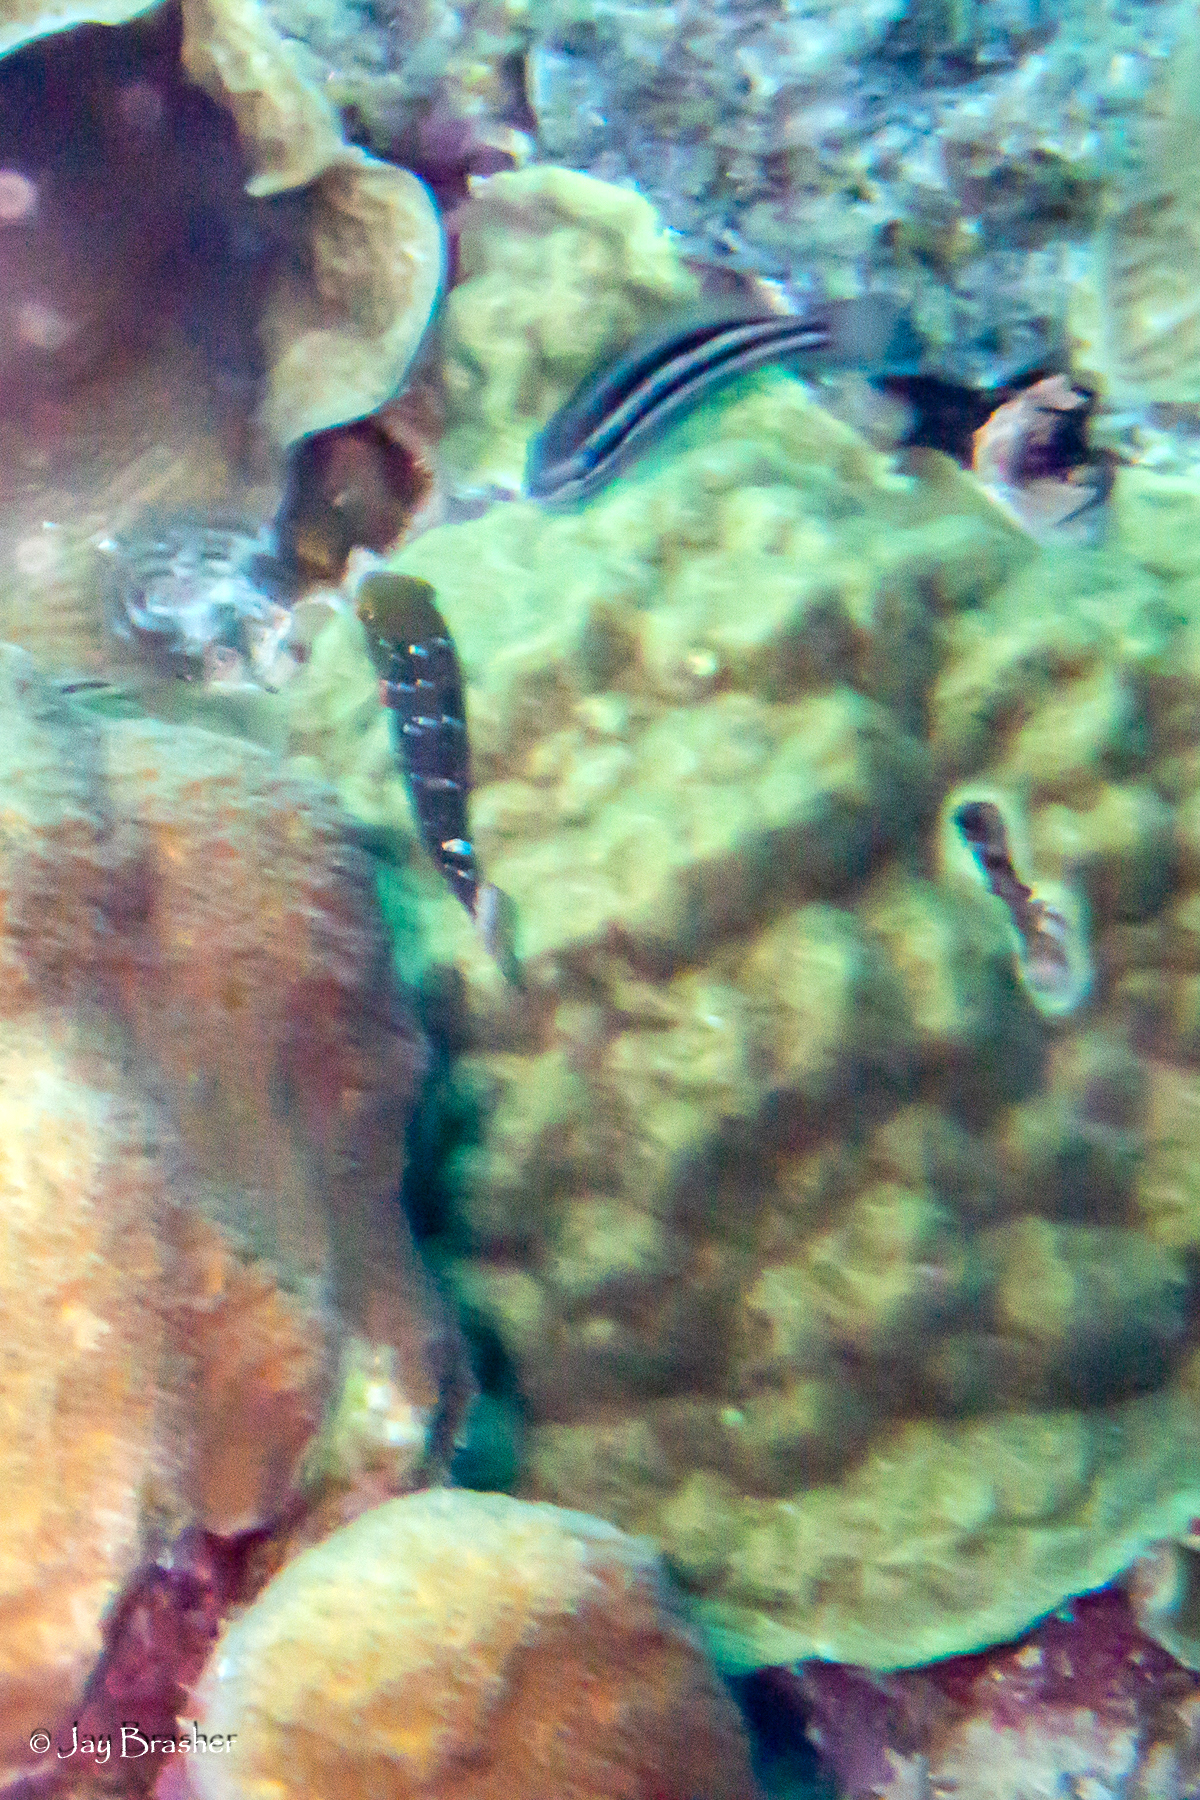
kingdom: Animalia
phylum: Chordata
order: Perciformes
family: Scaridae
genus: Sparisoma
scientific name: Sparisoma viride
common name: Stoplight parrotfish
